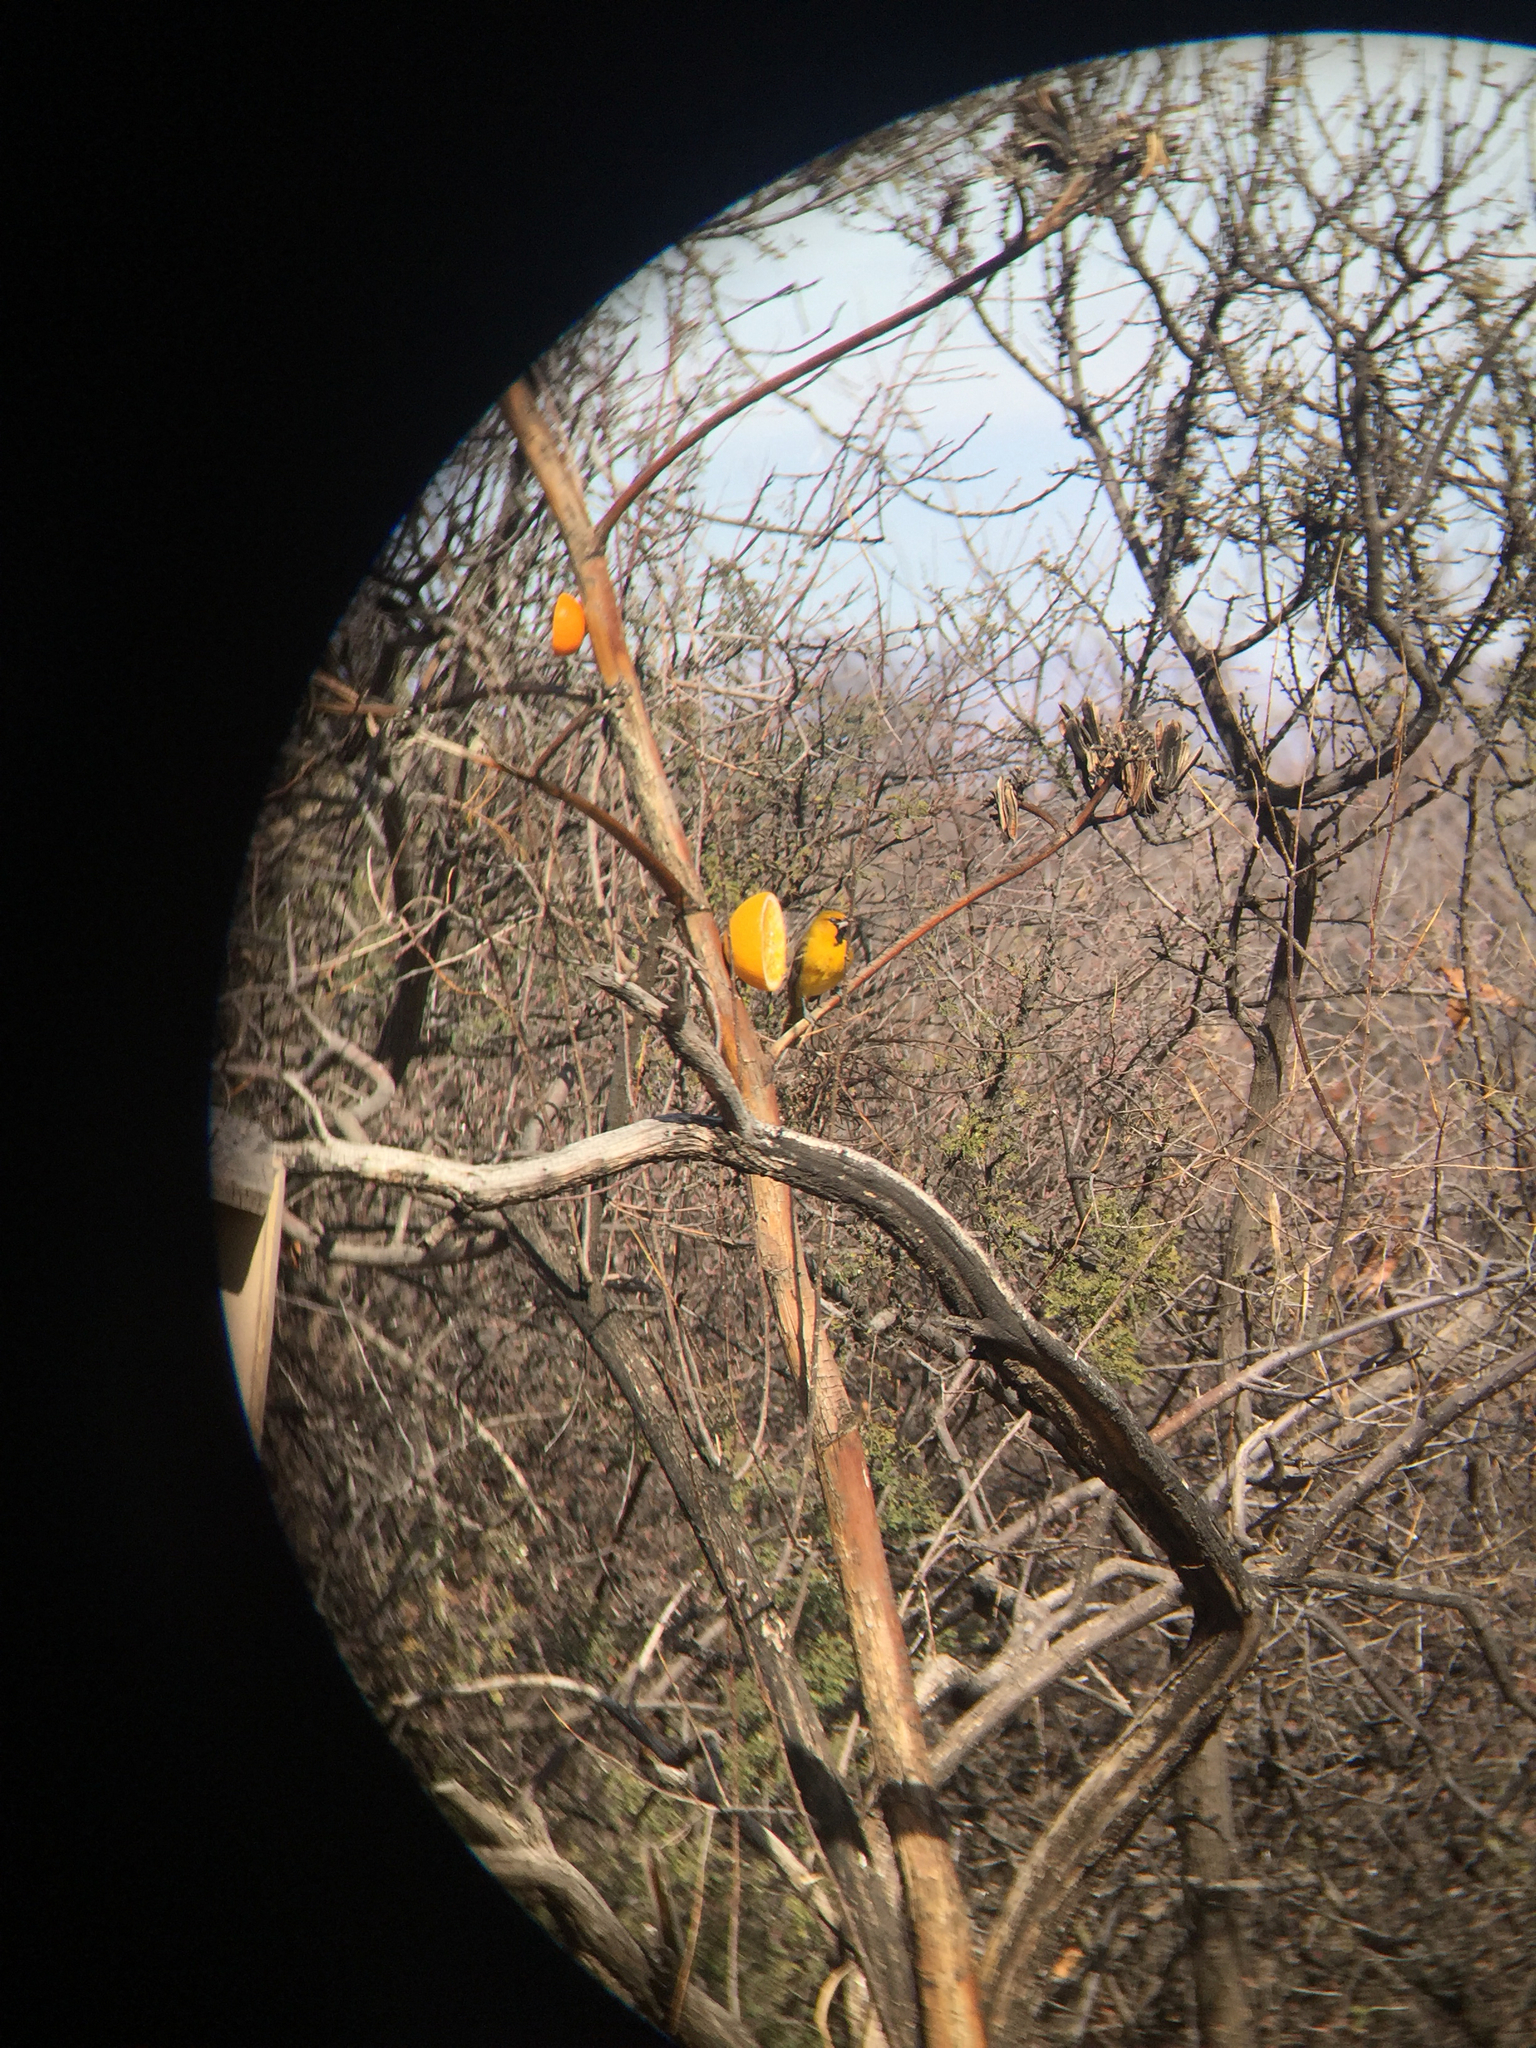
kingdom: Animalia
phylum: Chordata
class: Aves
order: Passeriformes
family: Icteridae
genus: Icterus
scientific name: Icterus pustulatus
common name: Streak-backed oriole
